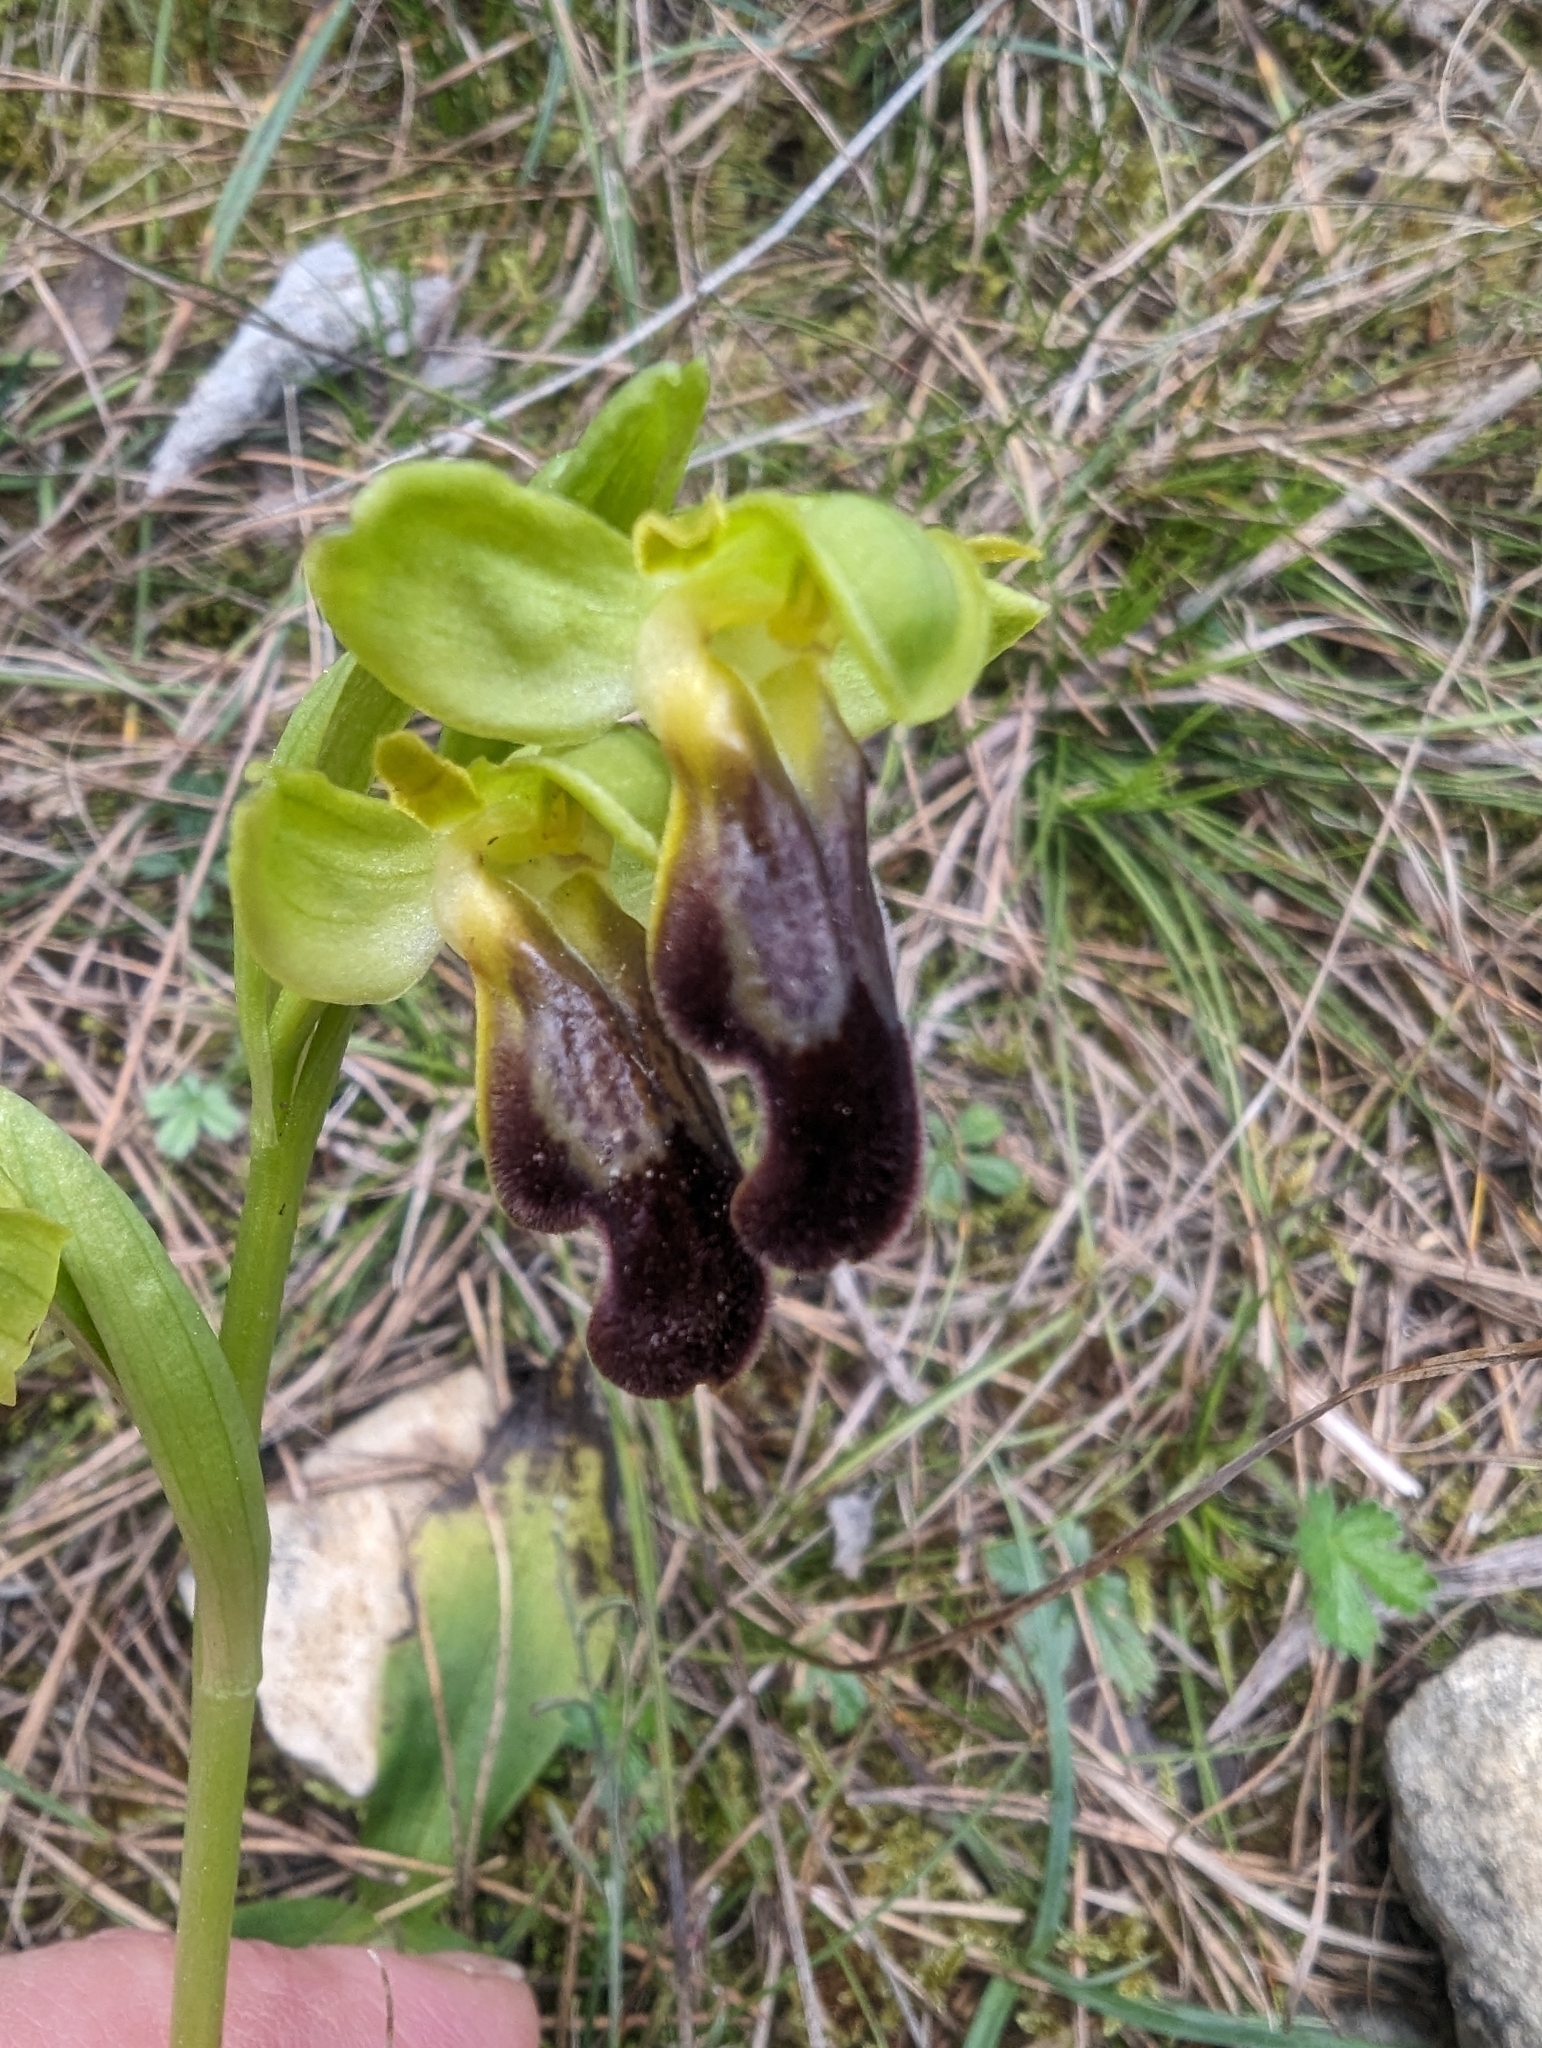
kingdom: Plantae
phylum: Tracheophyta
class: Liliopsida
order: Asparagales
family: Orchidaceae
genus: Ophrys
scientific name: Ophrys fusca
